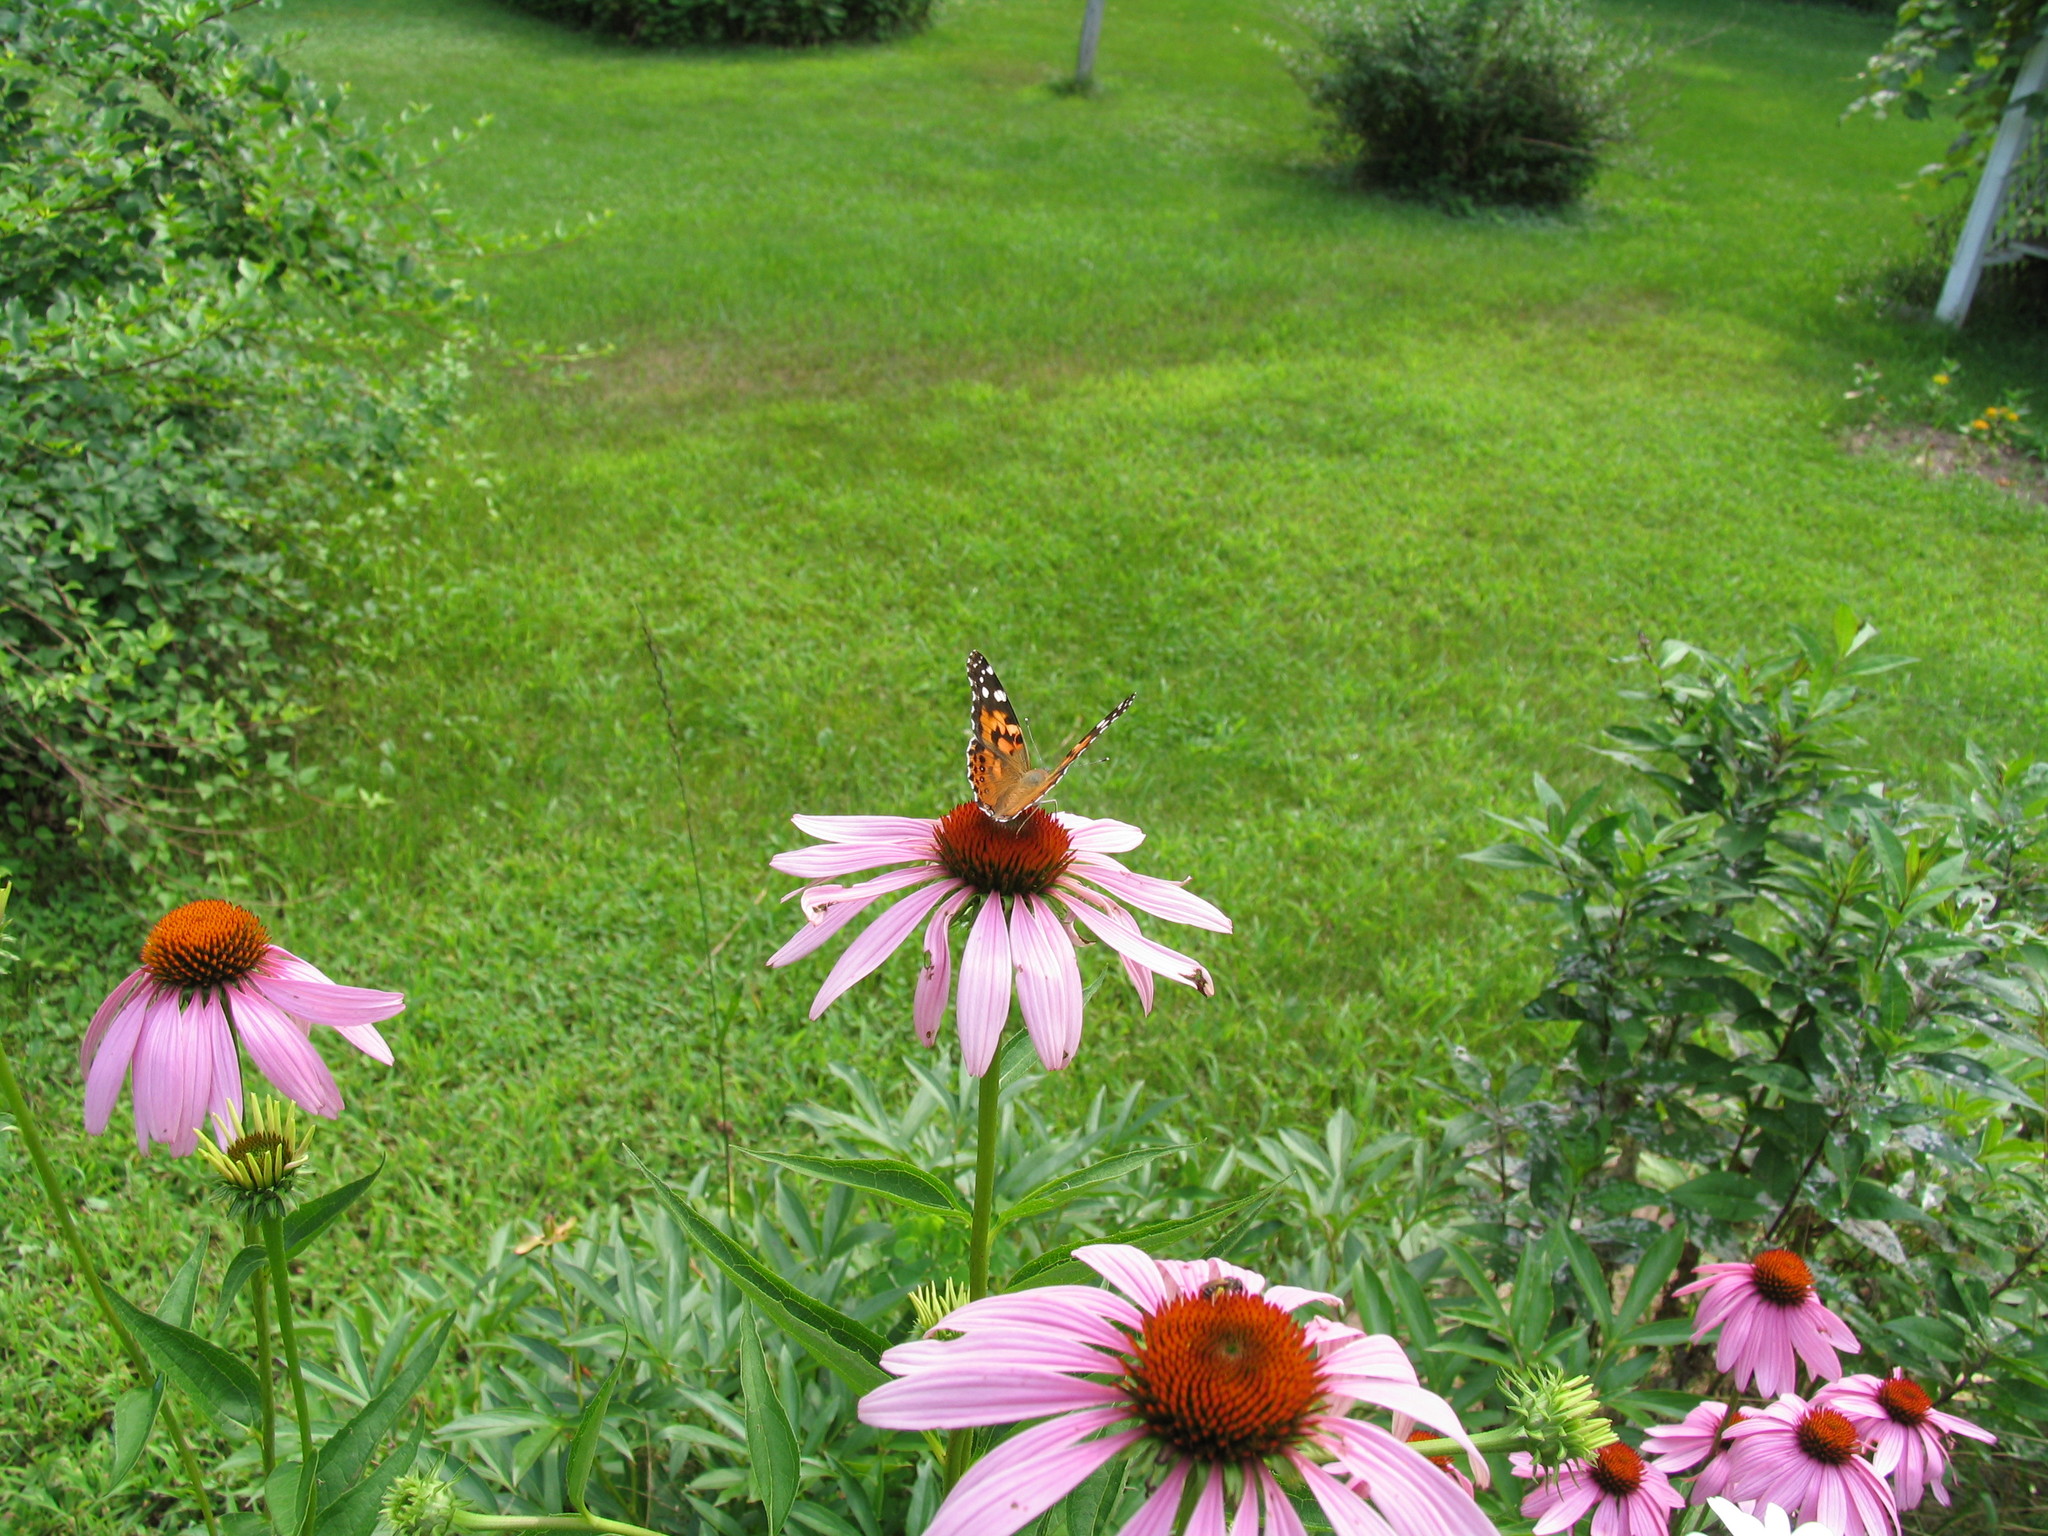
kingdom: Animalia
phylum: Arthropoda
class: Insecta
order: Lepidoptera
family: Nymphalidae
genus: Vanessa
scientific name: Vanessa cardui
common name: Painted lady
